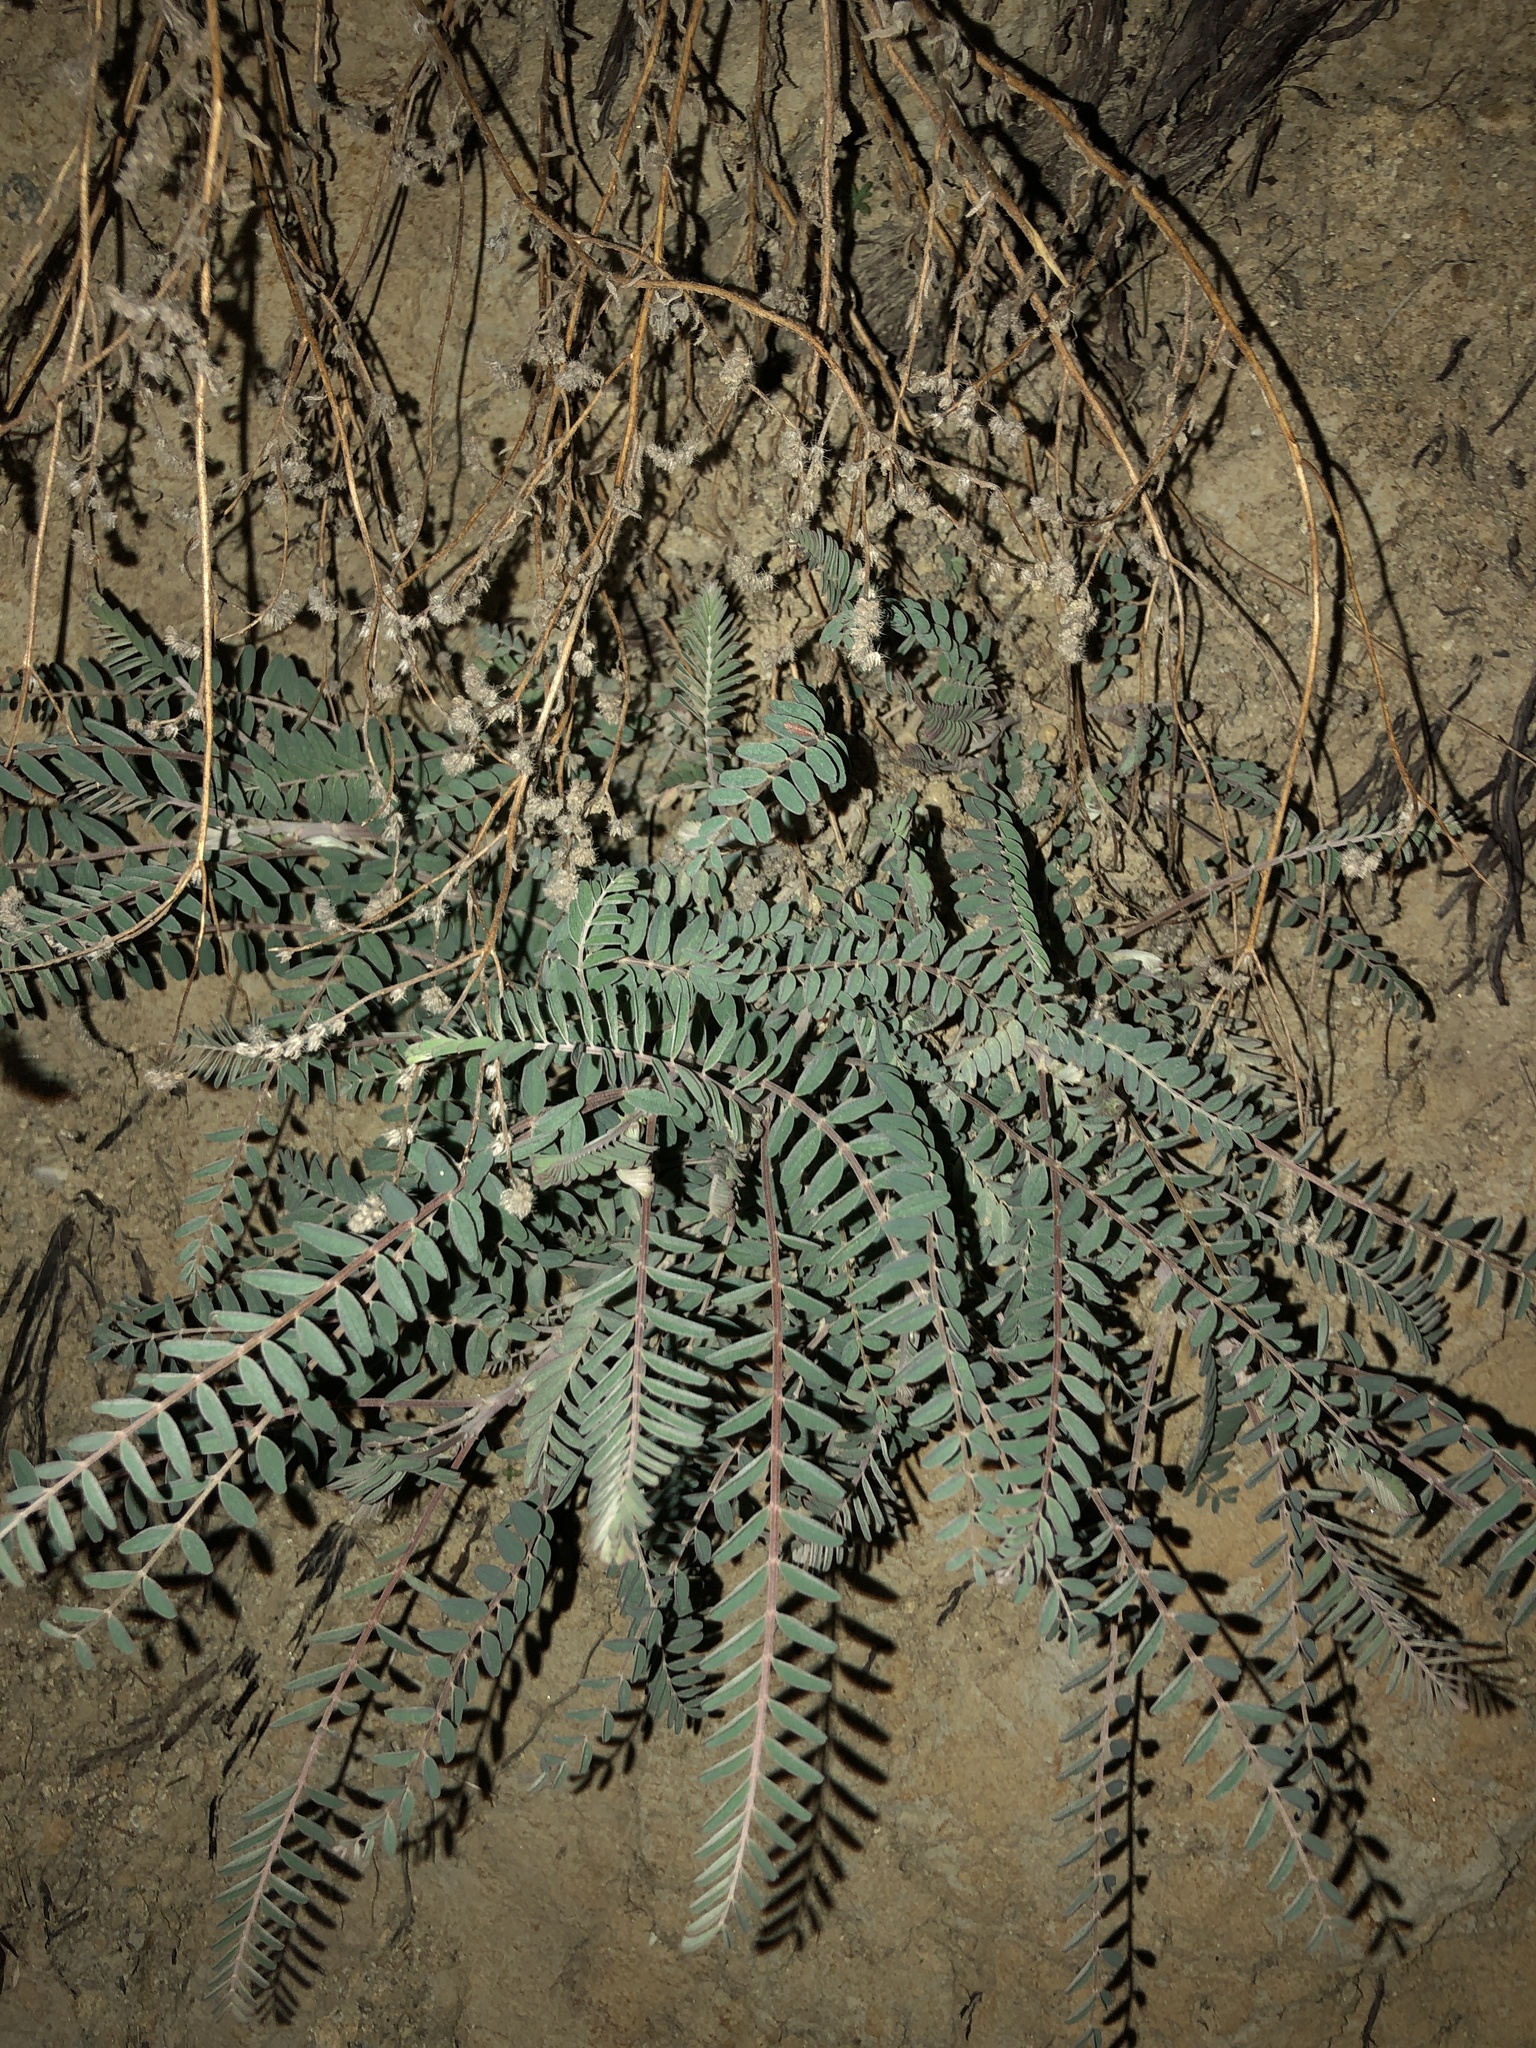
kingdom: Plantae
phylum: Tracheophyta
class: Magnoliopsida
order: Fabales
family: Fabaceae
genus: Astragalus
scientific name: Astragalus trichopodus
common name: Santa barbara milk-vetch
